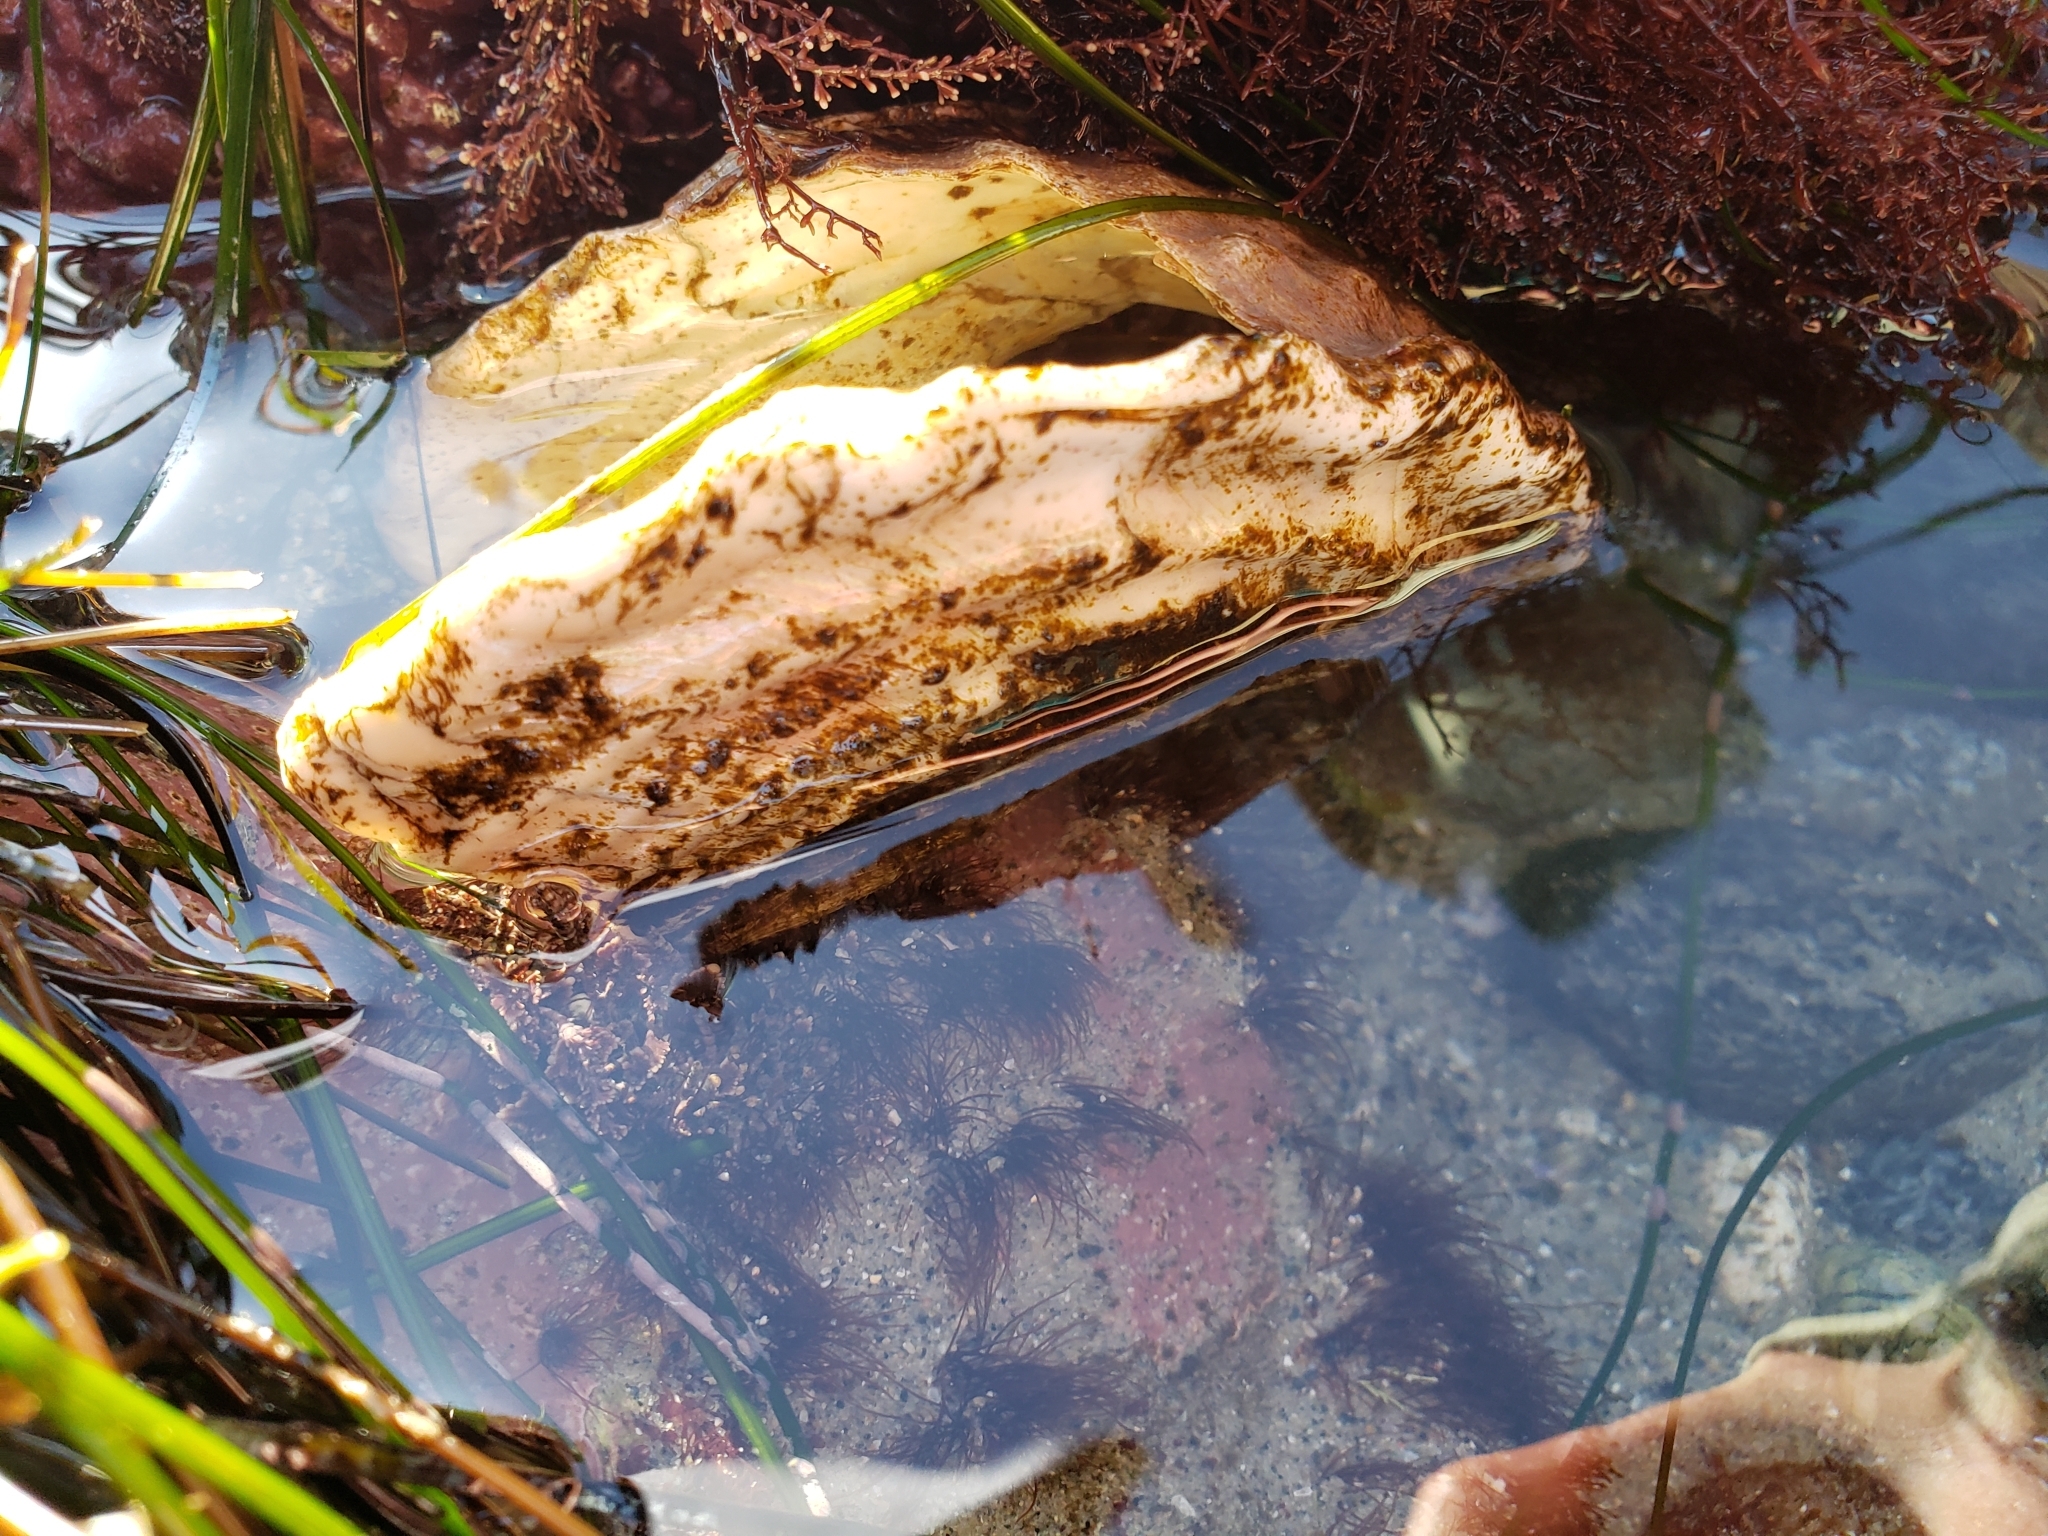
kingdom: Animalia
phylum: Mollusca
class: Gastropoda
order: Trochida
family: Turbinidae
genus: Megastraea
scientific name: Megastraea undosa
